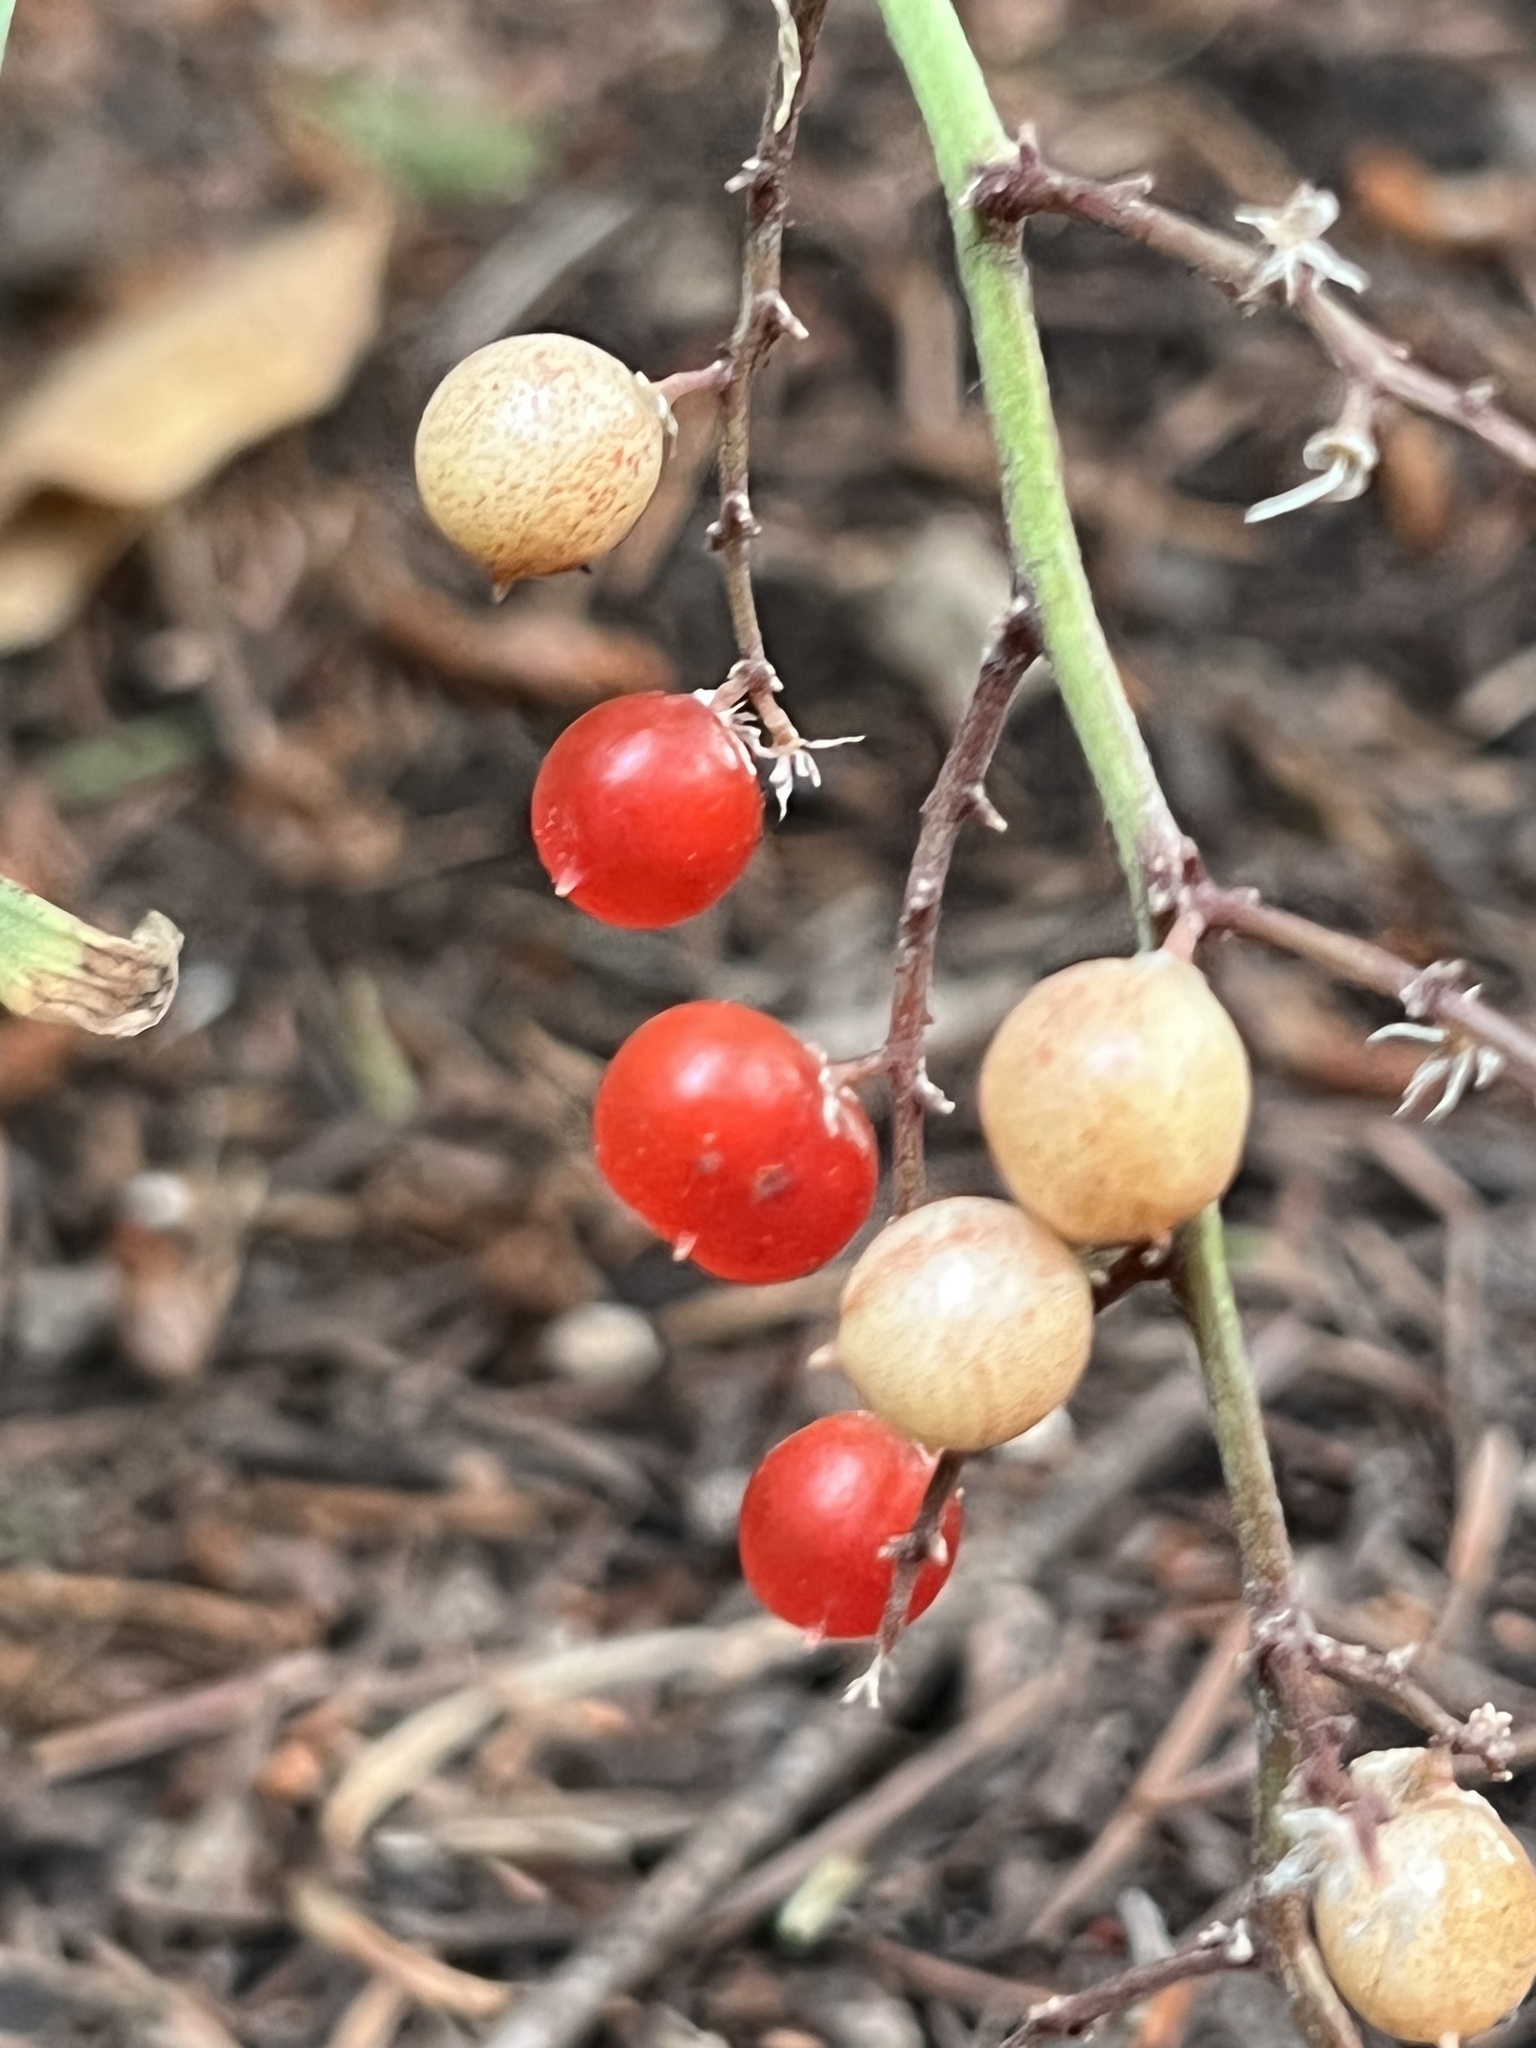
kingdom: Plantae
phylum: Tracheophyta
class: Liliopsida
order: Asparagales
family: Asparagaceae
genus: Maianthemum
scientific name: Maianthemum racemosum
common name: False spikenard
